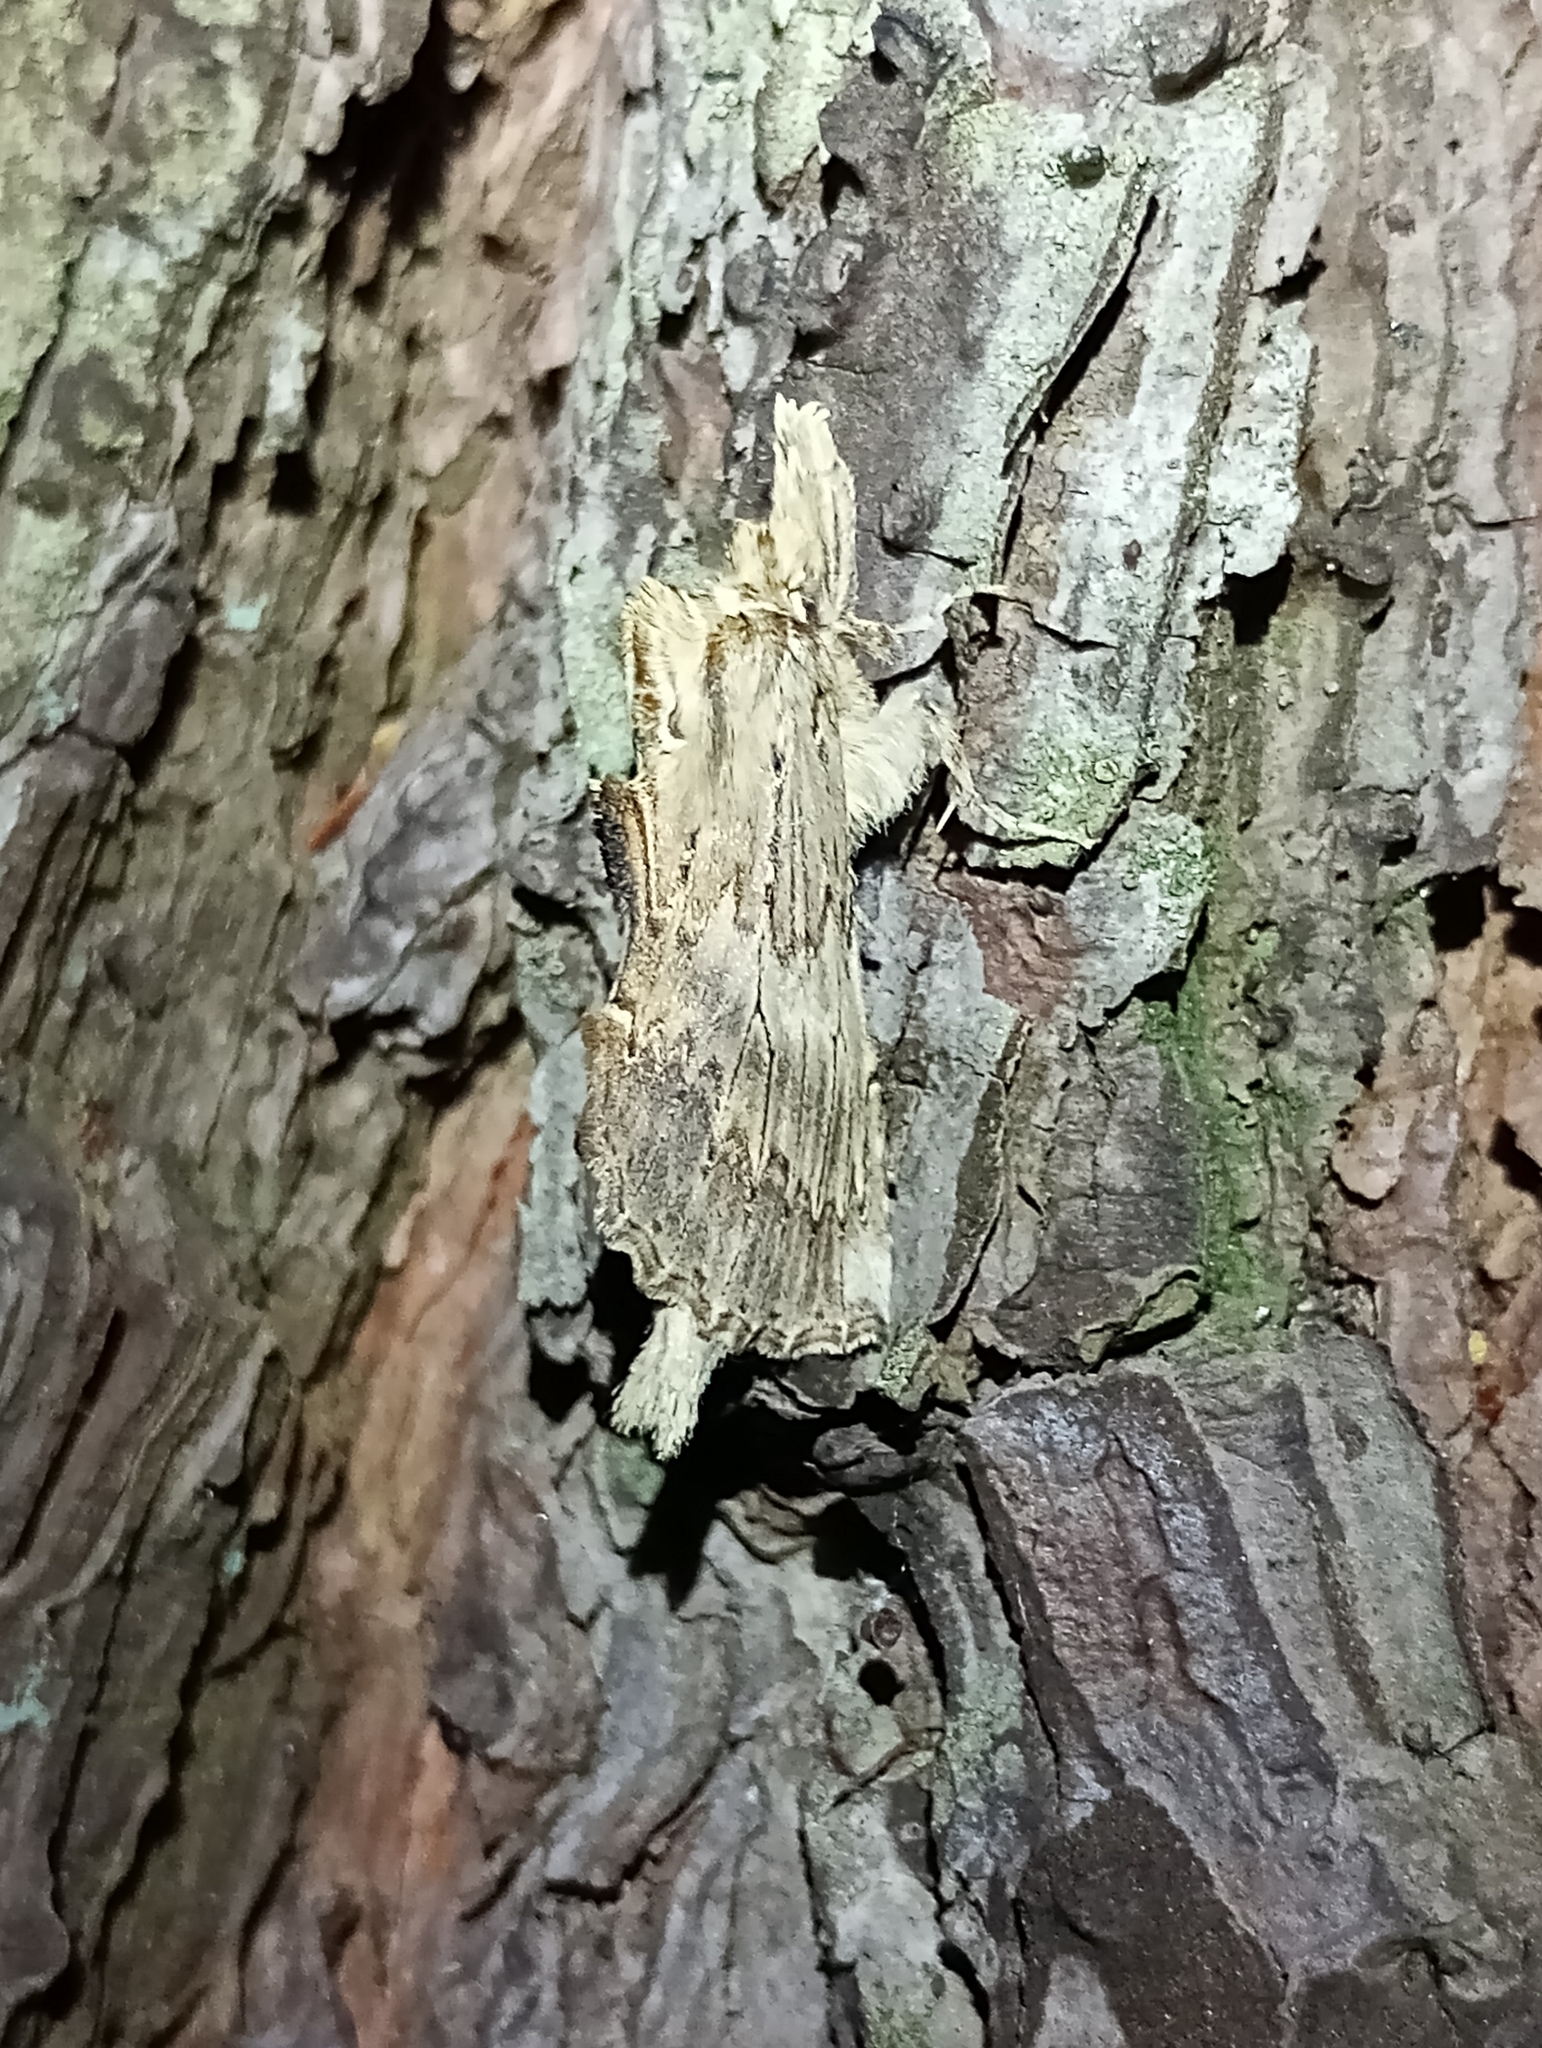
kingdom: Animalia
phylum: Arthropoda
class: Insecta
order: Lepidoptera
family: Notodontidae
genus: Pterostoma
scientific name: Pterostoma palpina
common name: Pale prominent
